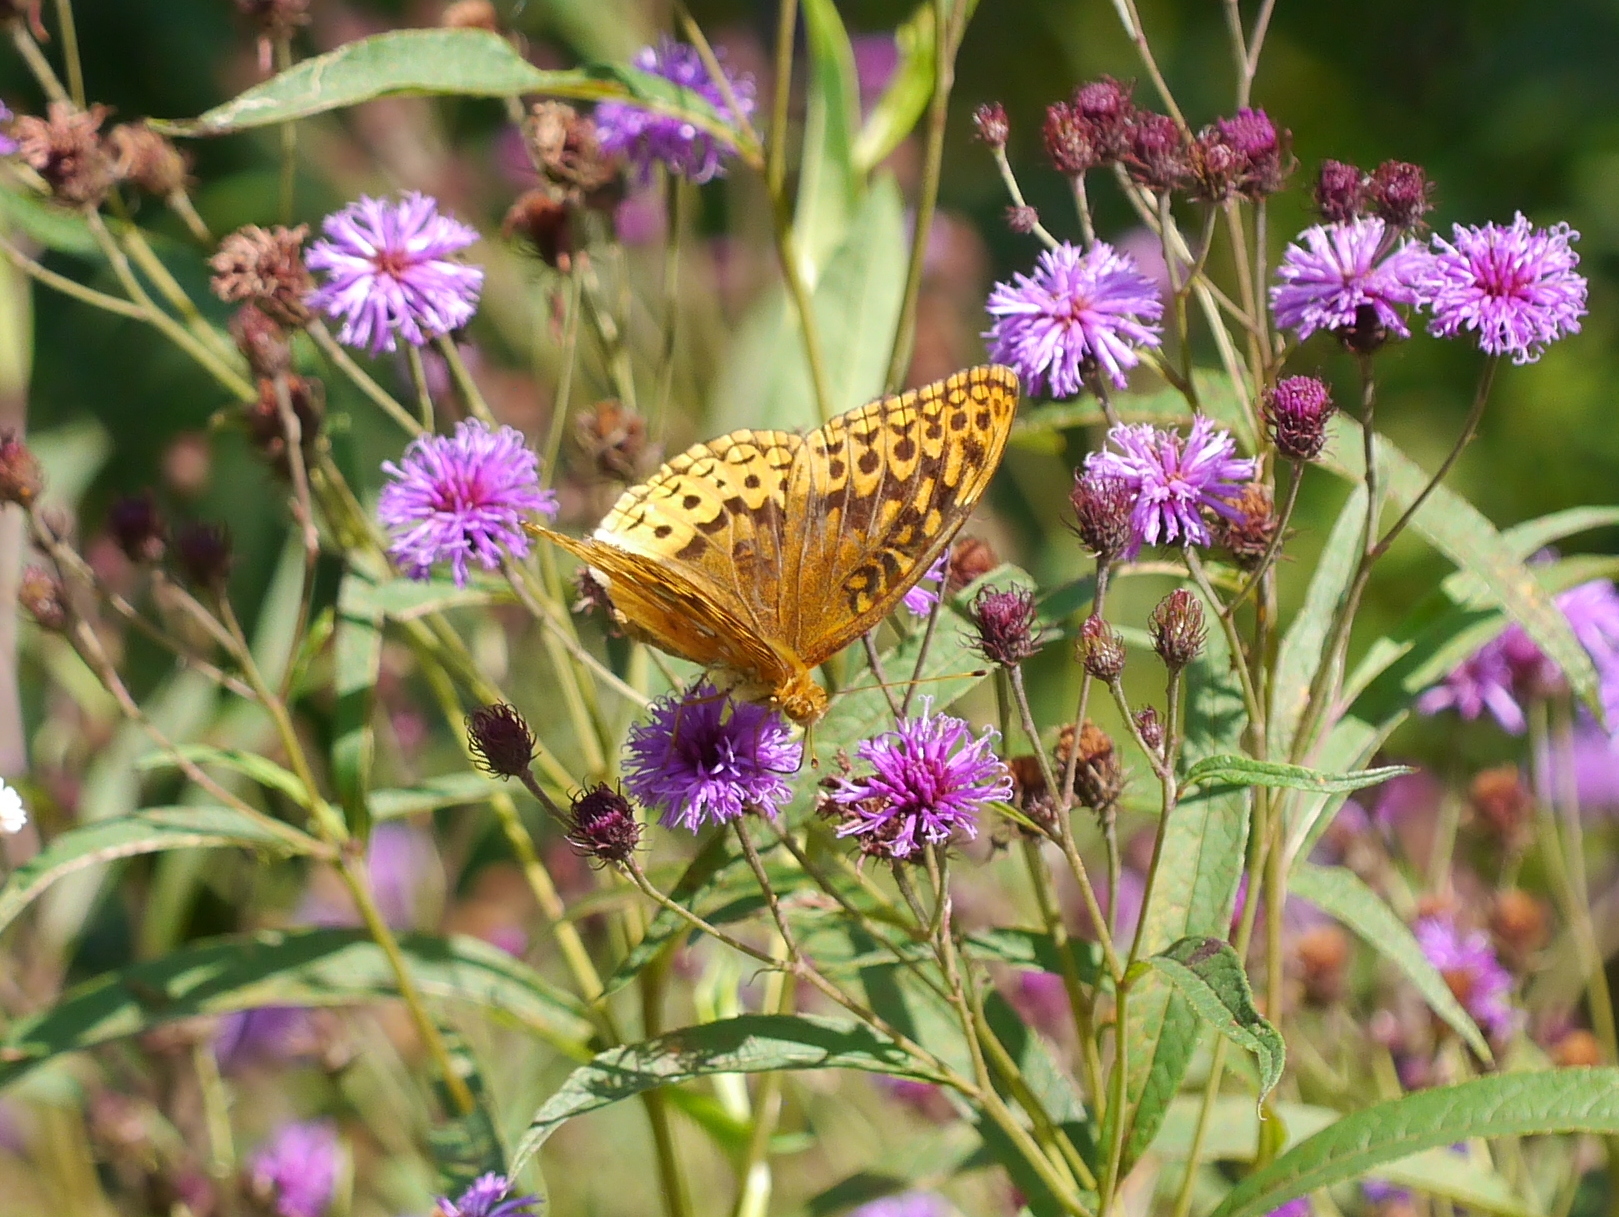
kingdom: Animalia
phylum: Arthropoda
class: Insecta
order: Lepidoptera
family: Nymphalidae
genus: Speyeria
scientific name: Speyeria cybele
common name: Great spangled fritillary
